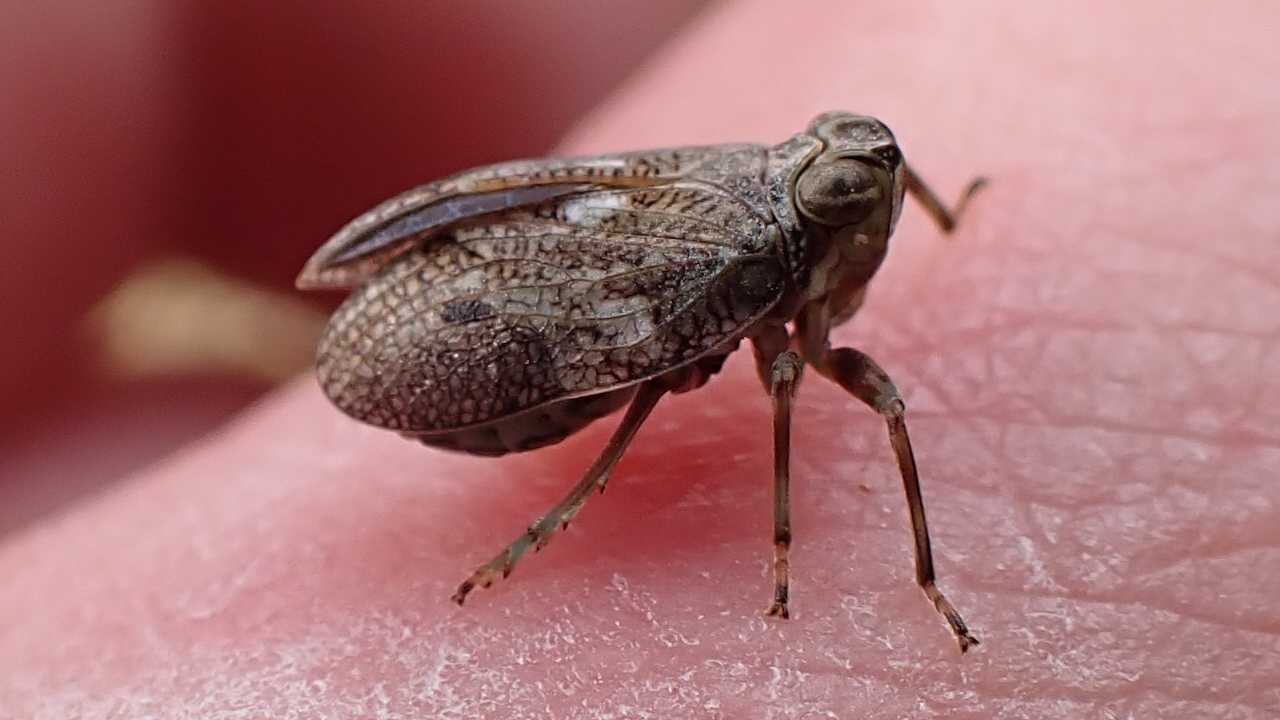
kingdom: Animalia
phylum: Arthropoda
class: Insecta
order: Hemiptera
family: Issidae
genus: Issus
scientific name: Issus coleoptratus
